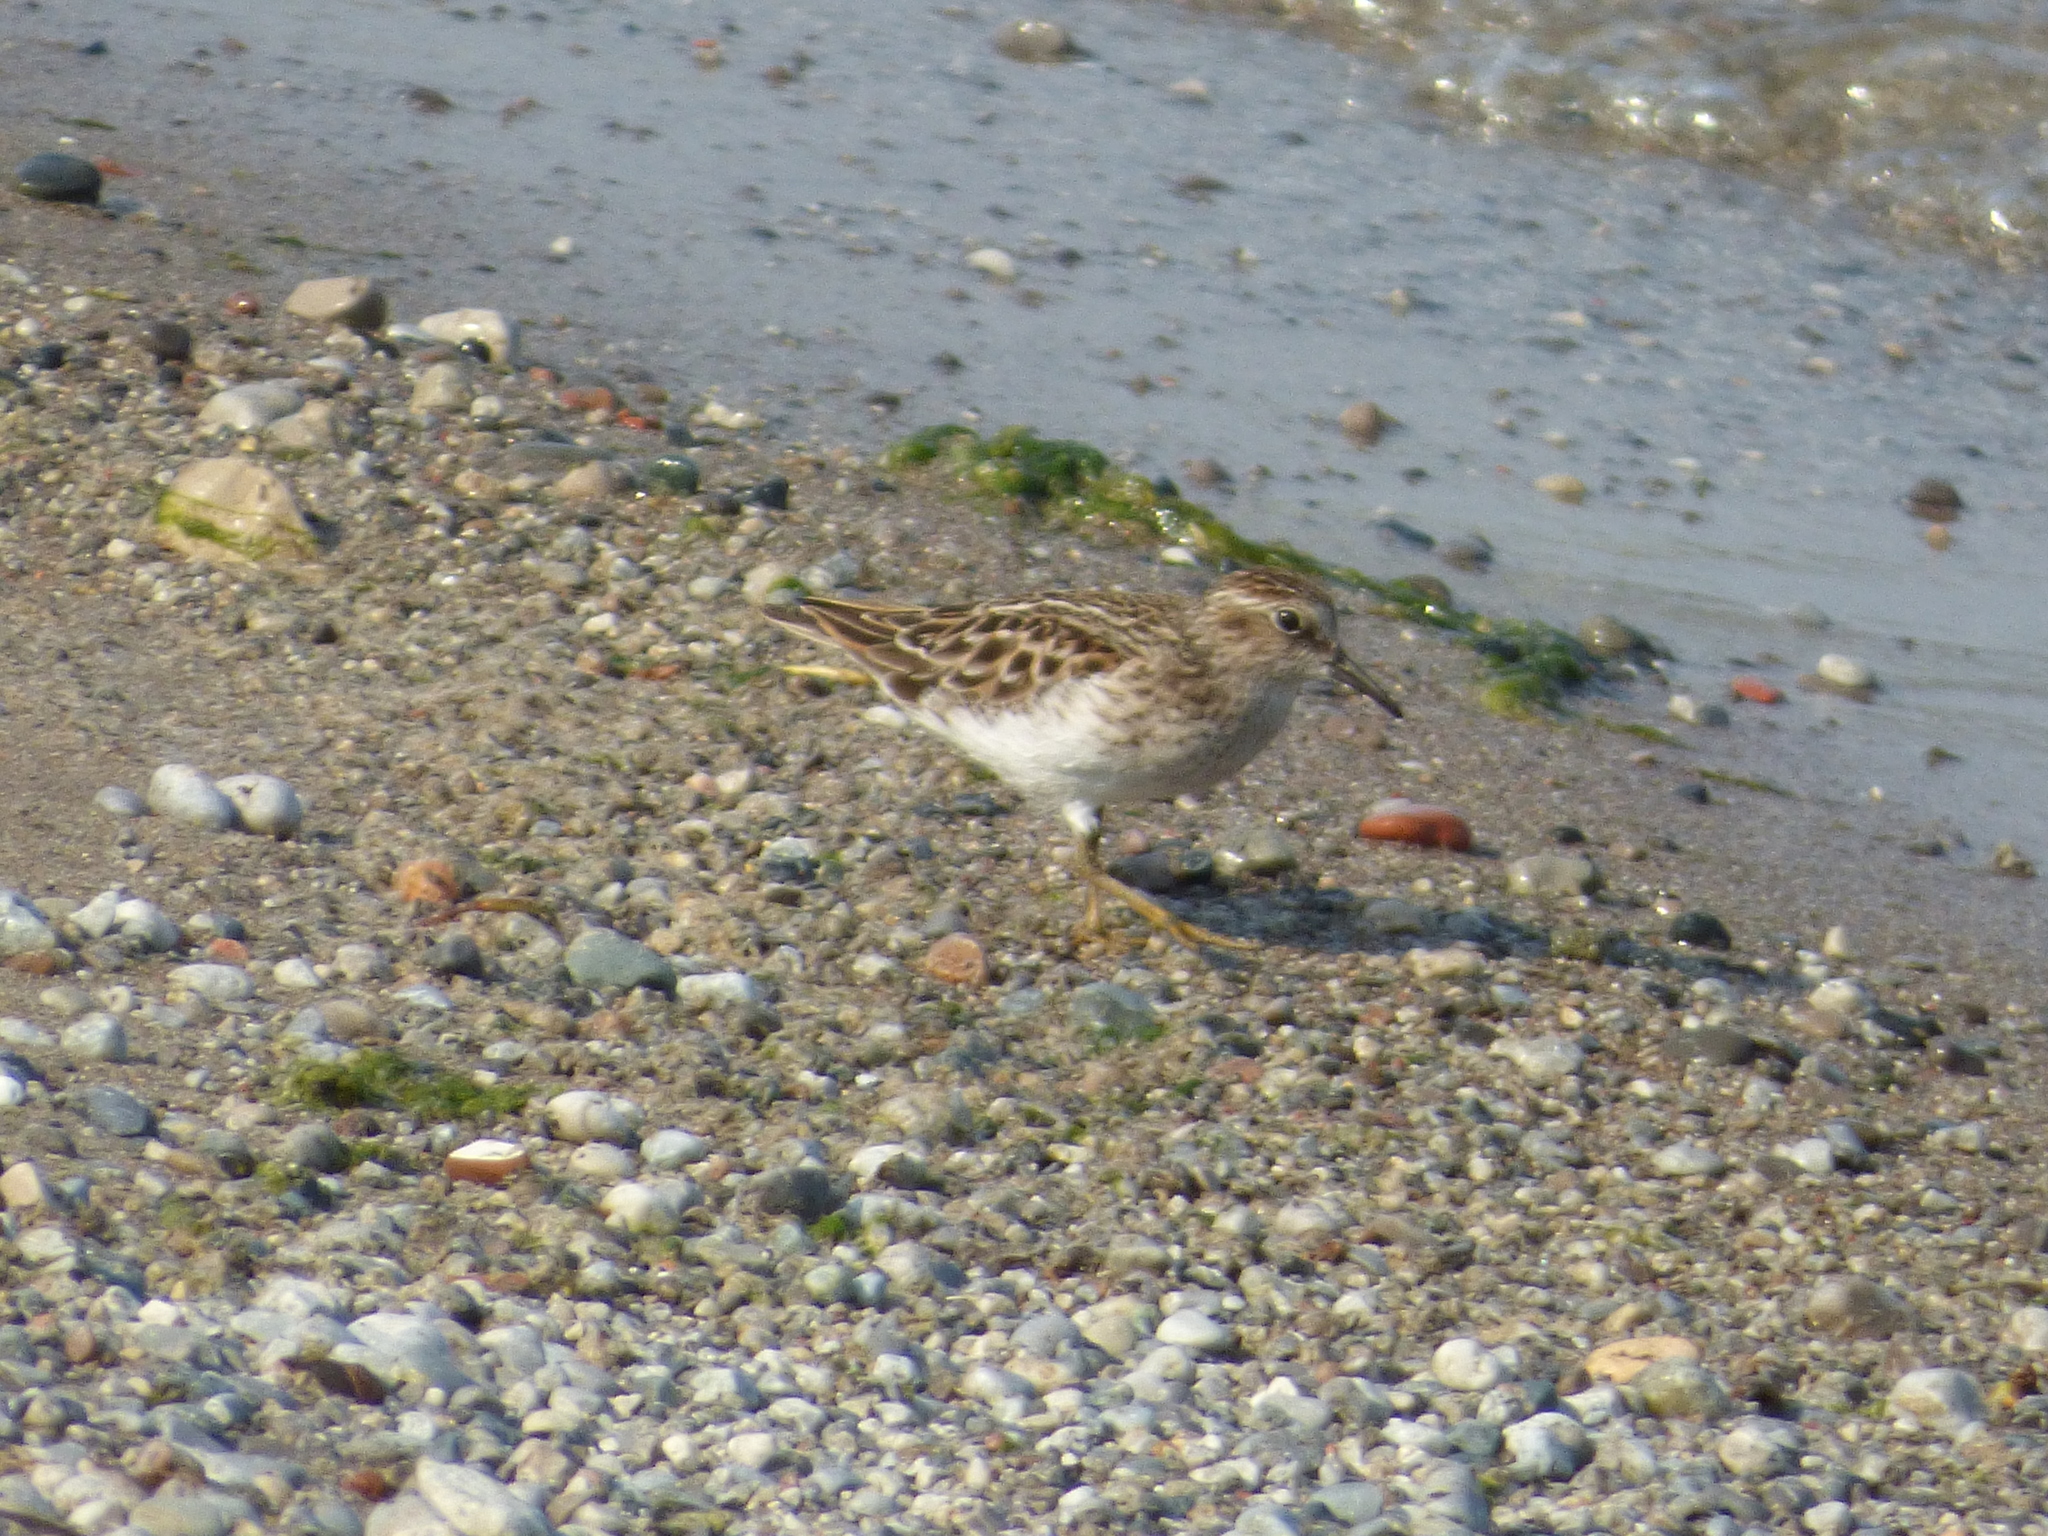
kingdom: Animalia
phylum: Chordata
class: Aves
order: Charadriiformes
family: Scolopacidae
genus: Calidris
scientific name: Calidris minutilla
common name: Least sandpiper
